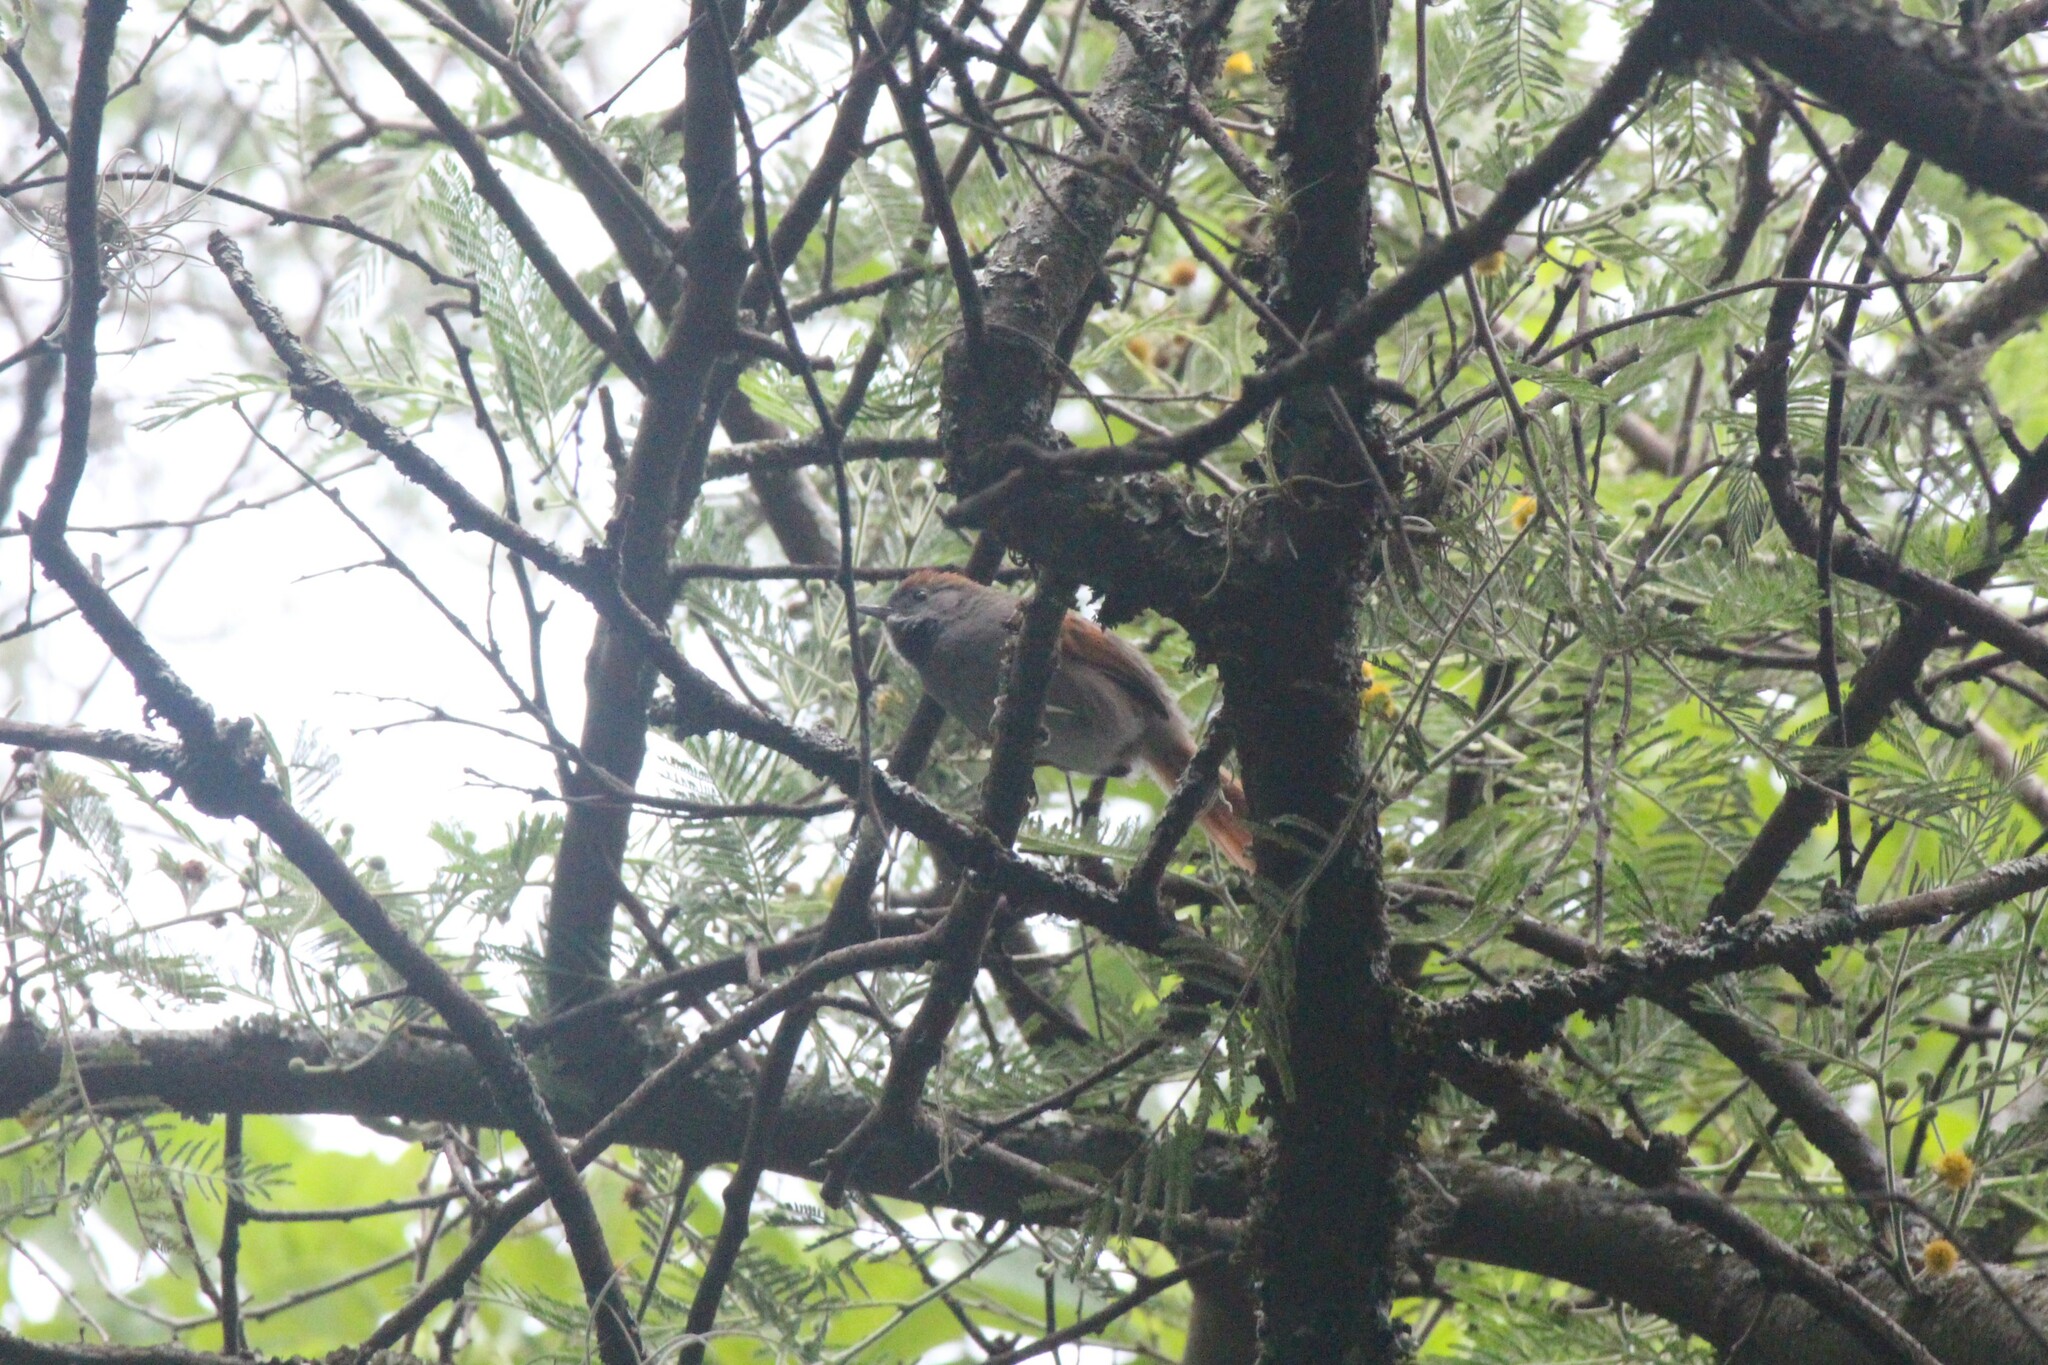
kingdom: Animalia
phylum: Chordata
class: Aves
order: Passeriformes
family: Furnariidae
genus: Synallaxis
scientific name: Synallaxis azarae
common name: Azara's spinetail
